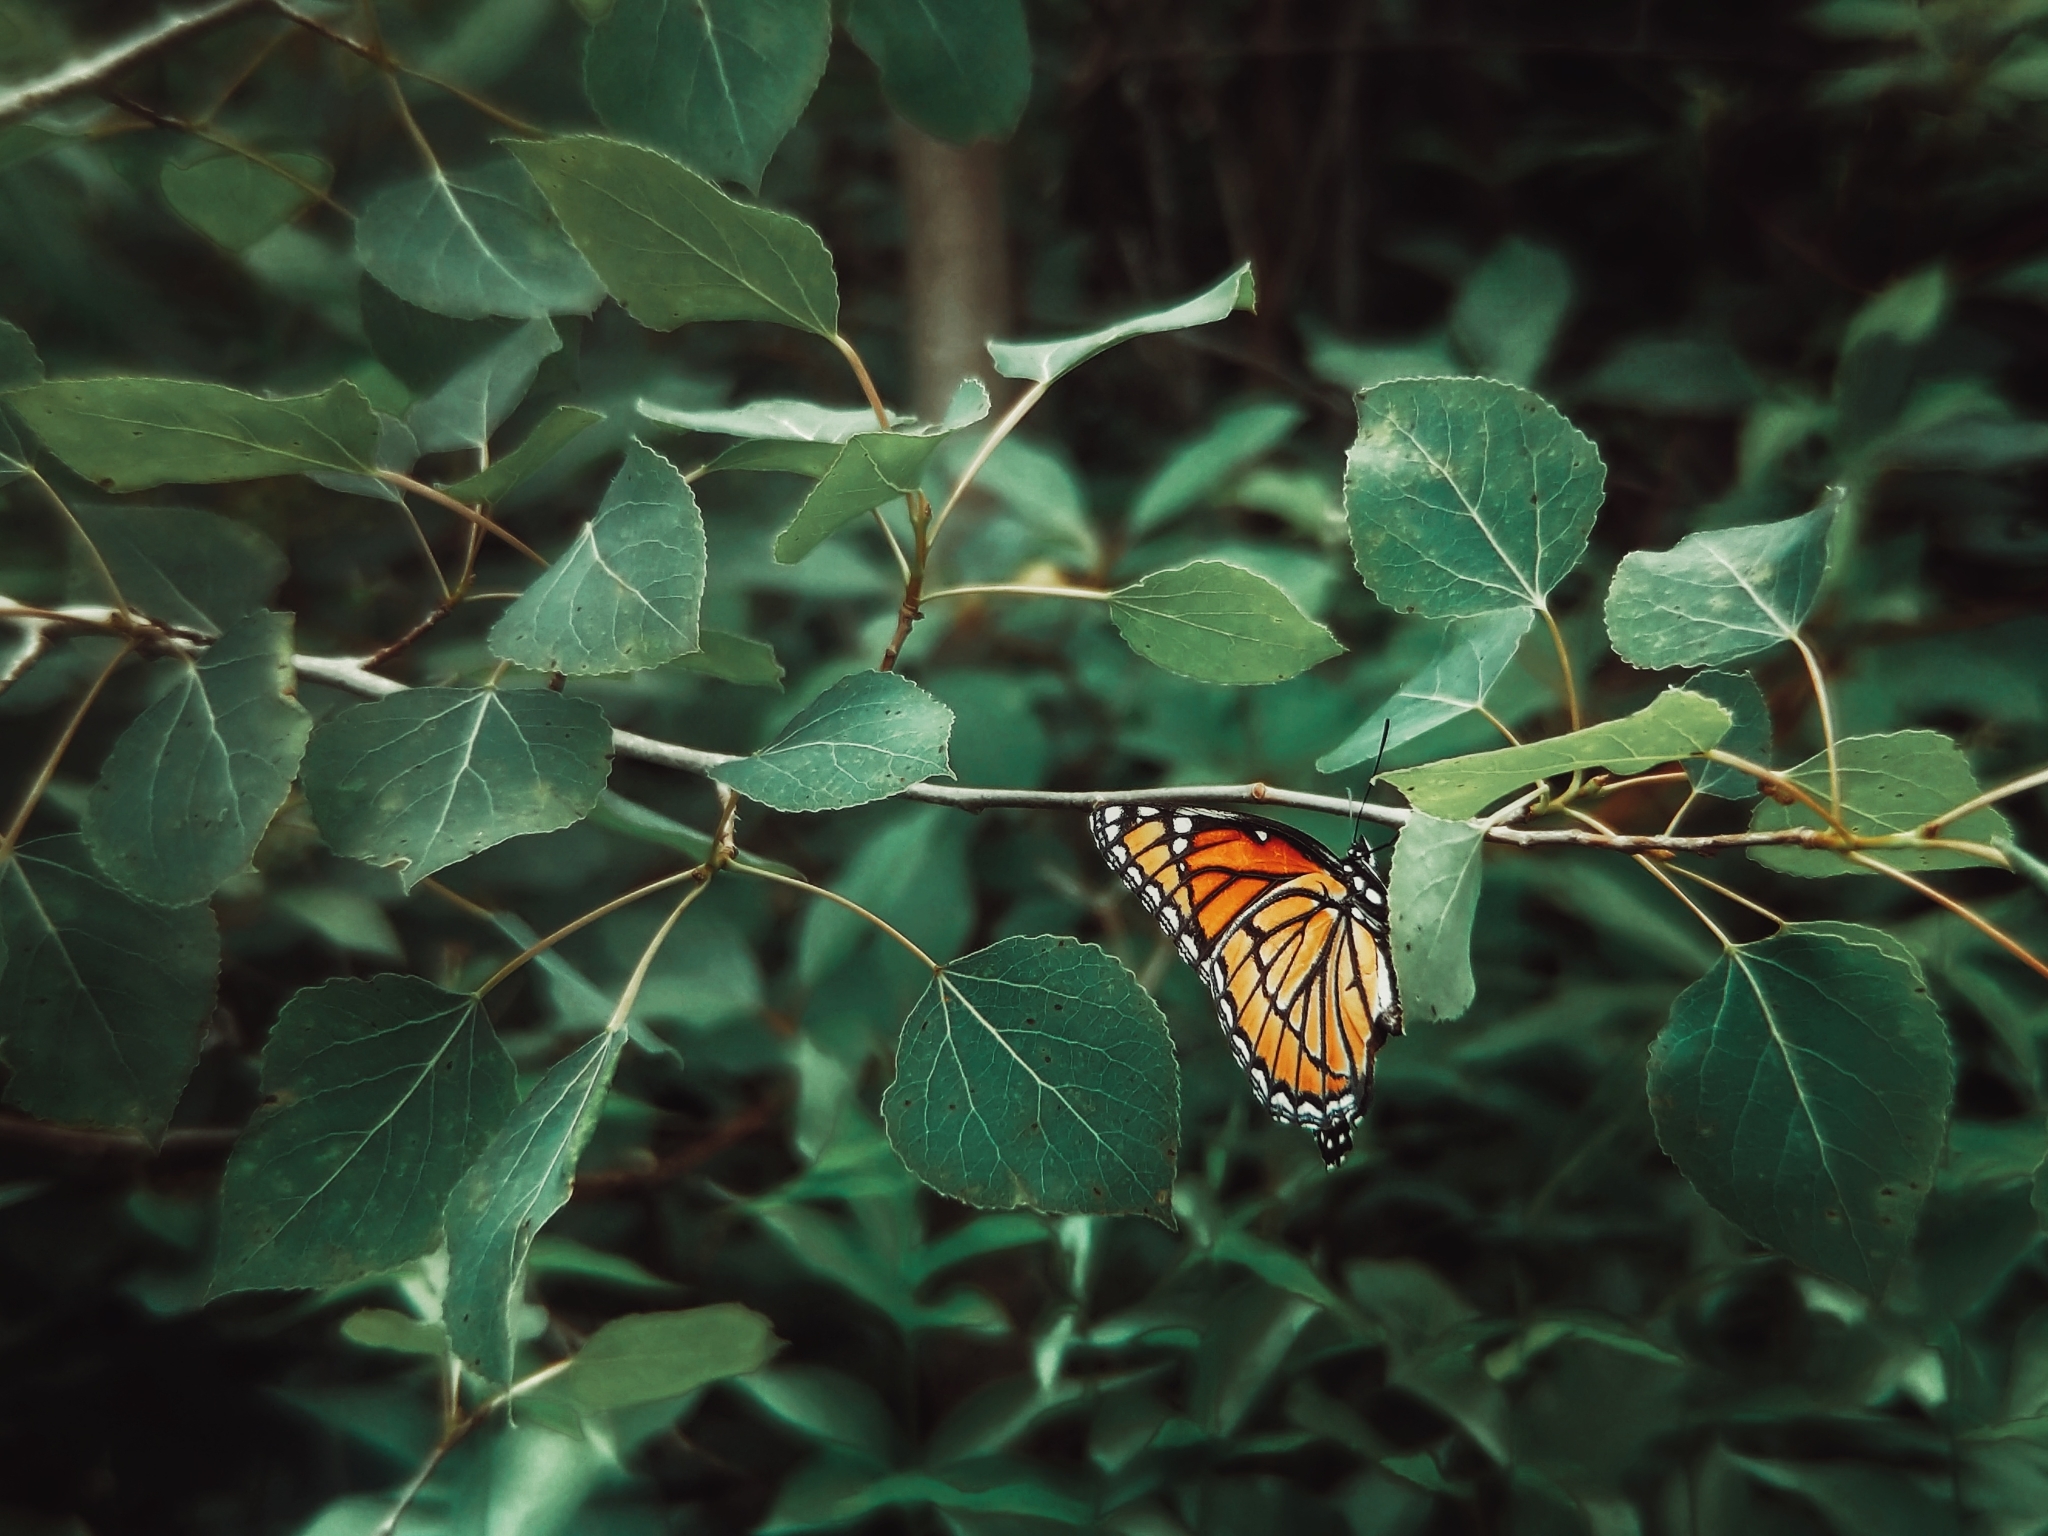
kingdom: Animalia
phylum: Arthropoda
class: Insecta
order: Lepidoptera
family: Nymphalidae
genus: Limenitis
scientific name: Limenitis archippus
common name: Viceroy
